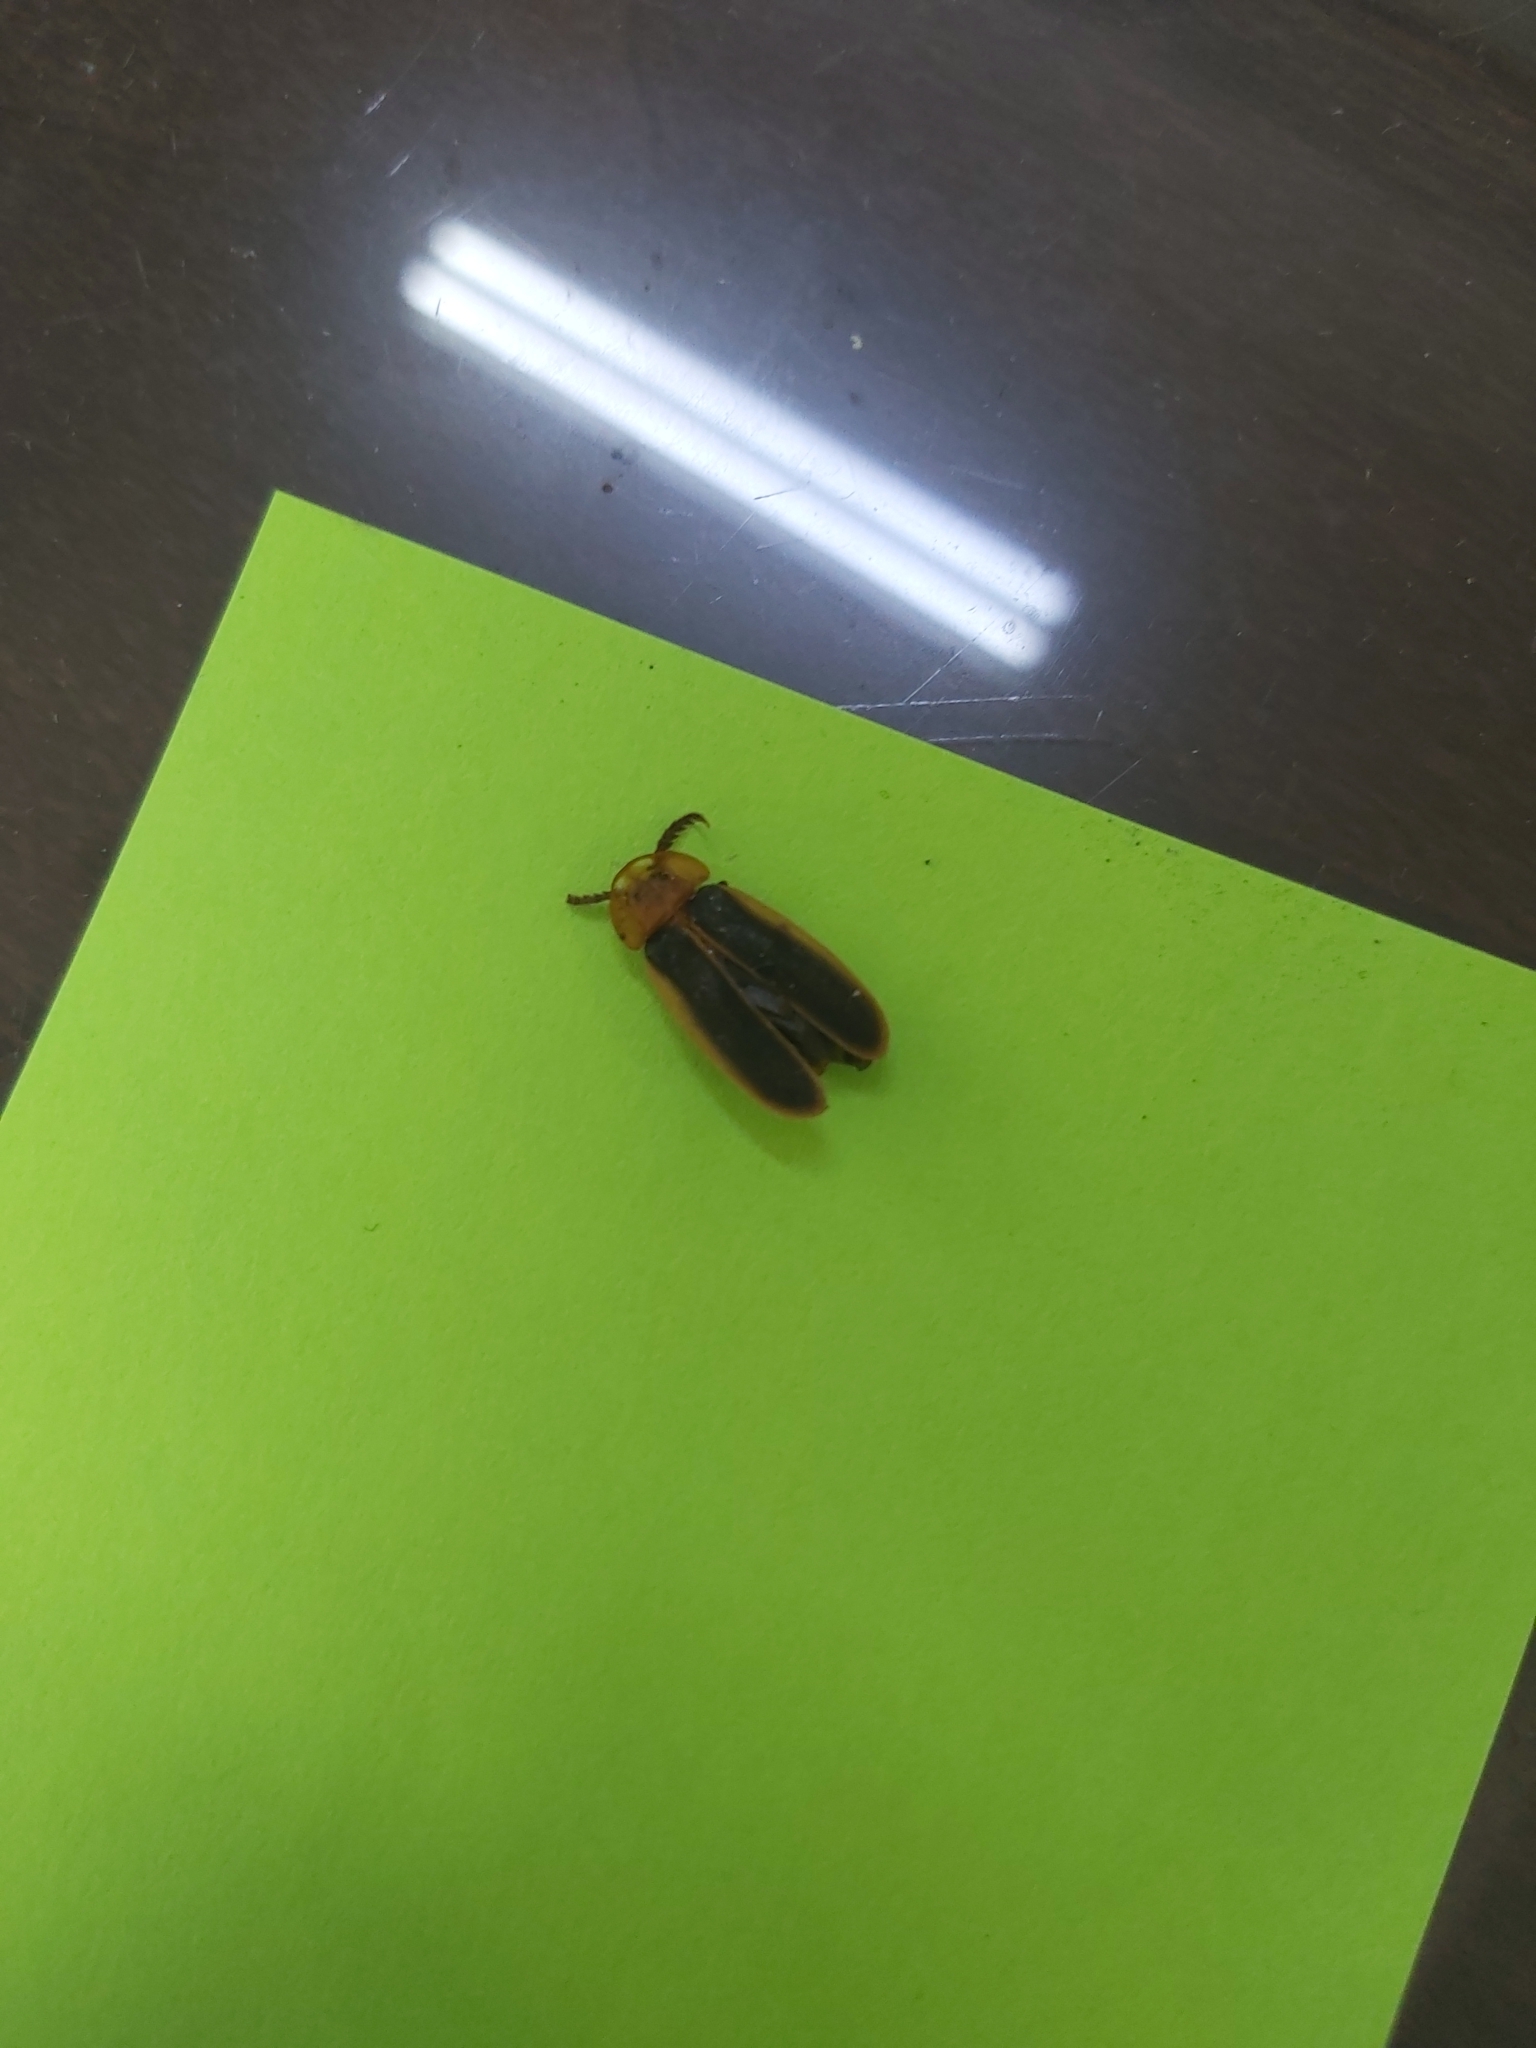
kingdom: Animalia
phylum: Arthropoda
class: Insecta
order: Coleoptera
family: Lampyridae
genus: Pyrocoelia
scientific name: Pyrocoelia analis
